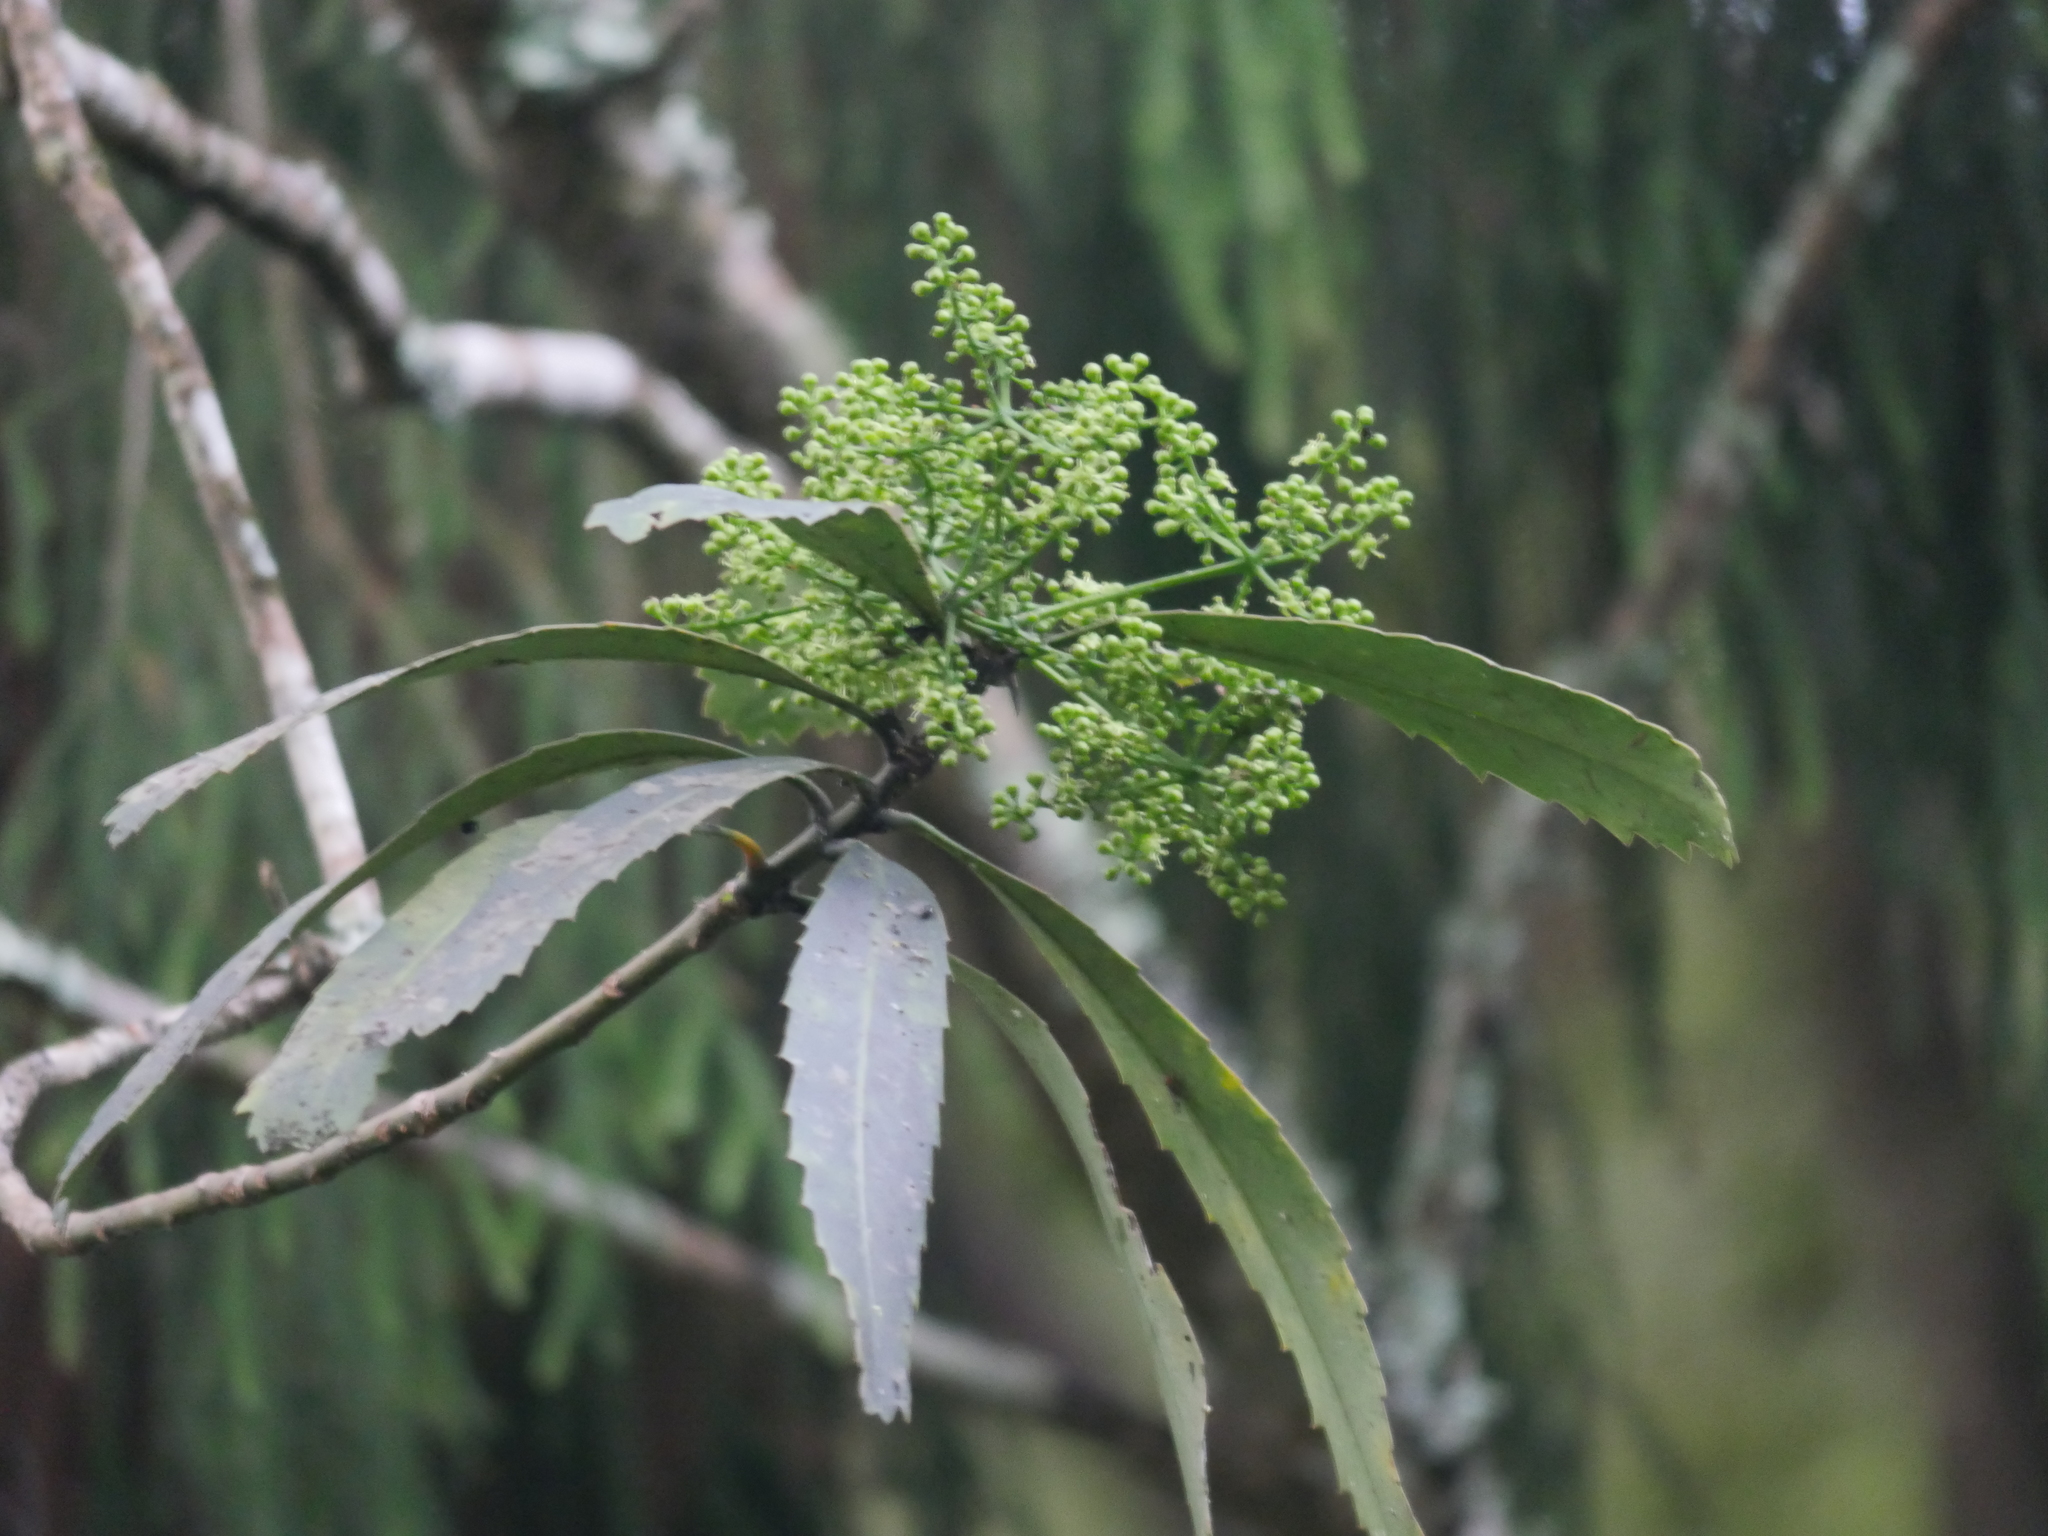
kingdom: Plantae
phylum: Tracheophyta
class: Magnoliopsida
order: Apiales
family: Araliaceae
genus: Pseudopanax
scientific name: Pseudopanax crassifolius
